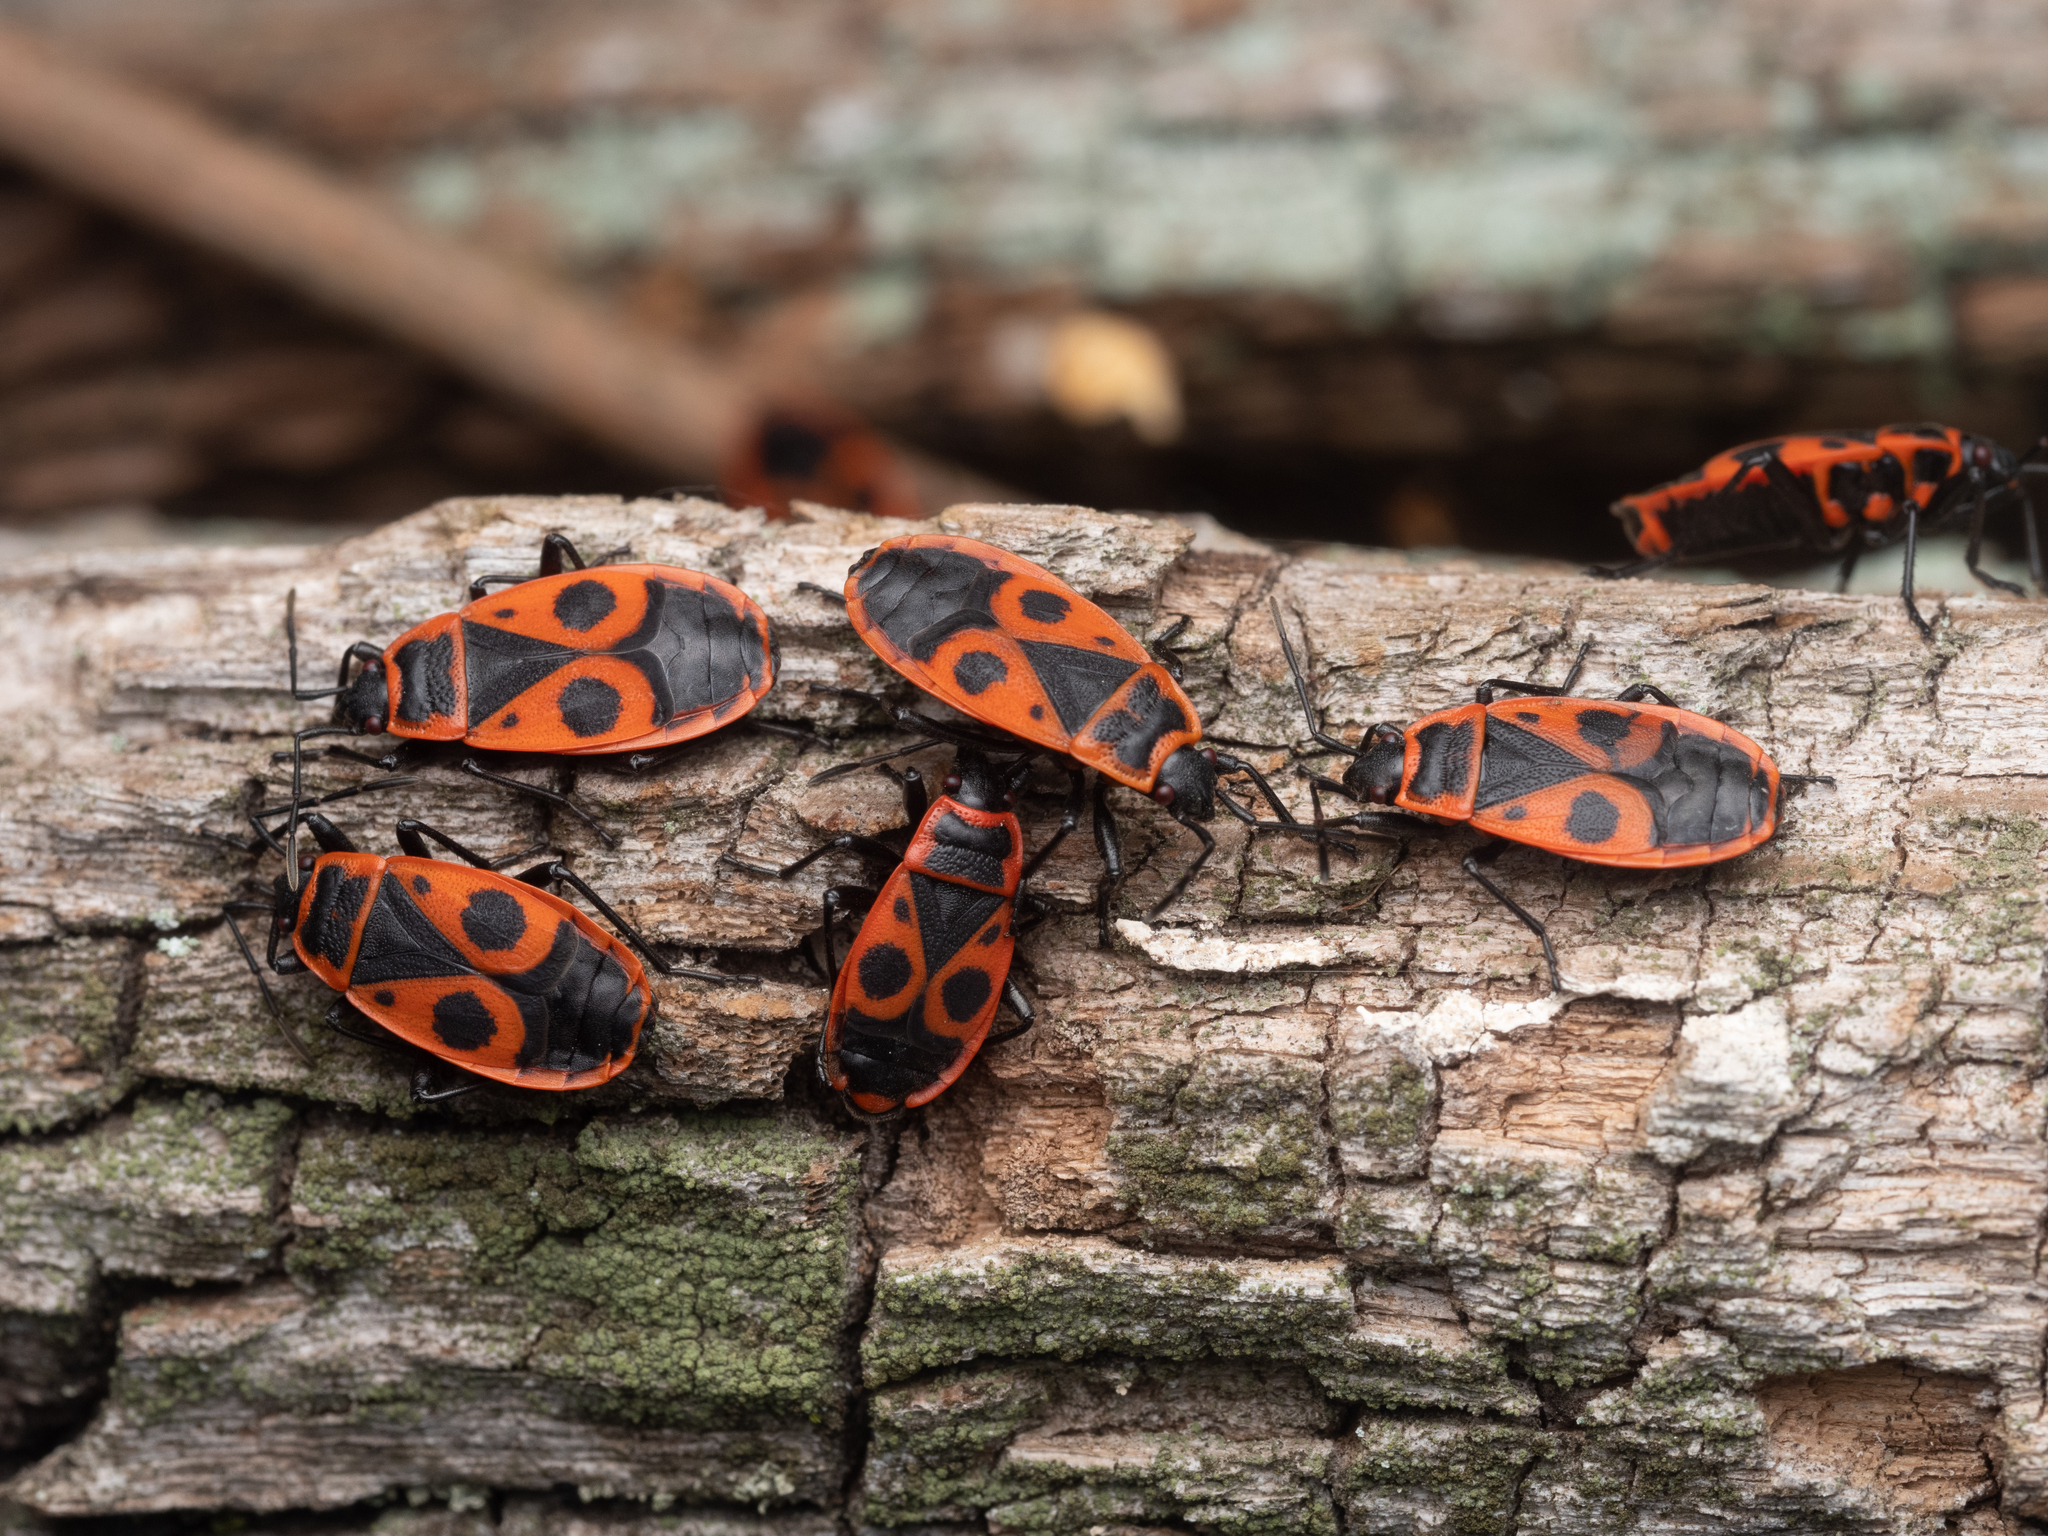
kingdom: Animalia
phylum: Arthropoda
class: Insecta
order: Hemiptera
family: Pyrrhocoridae
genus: Pyrrhocoris
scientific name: Pyrrhocoris apterus
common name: Firebug
